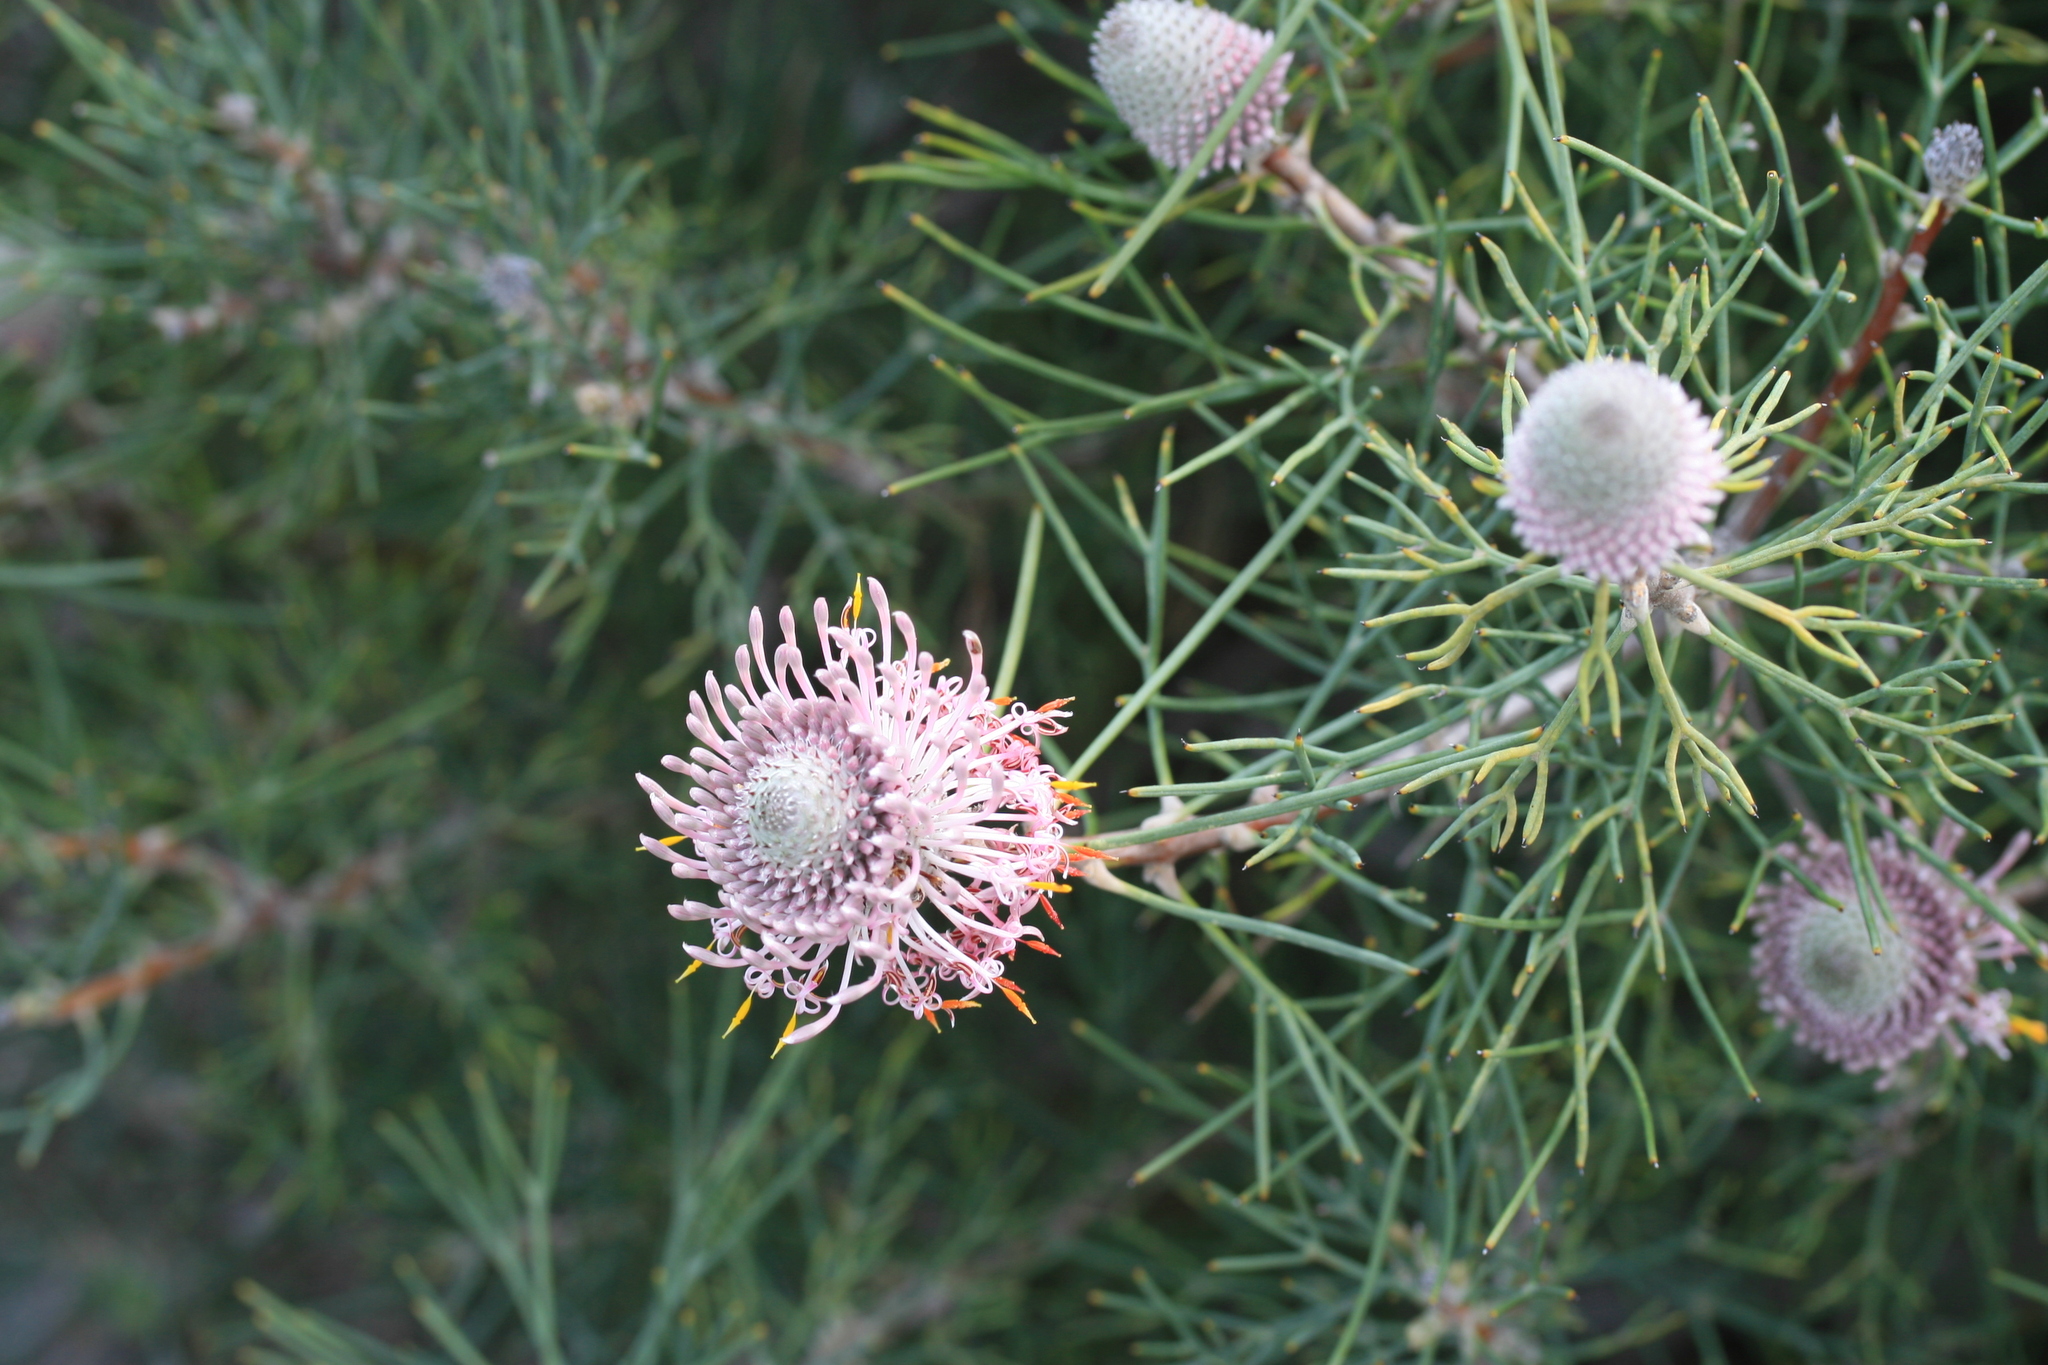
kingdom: Plantae
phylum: Tracheophyta
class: Magnoliopsida
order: Proteales
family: Proteaceae
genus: Isopogon
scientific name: Isopogon divergens
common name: Spreading-coneflower
